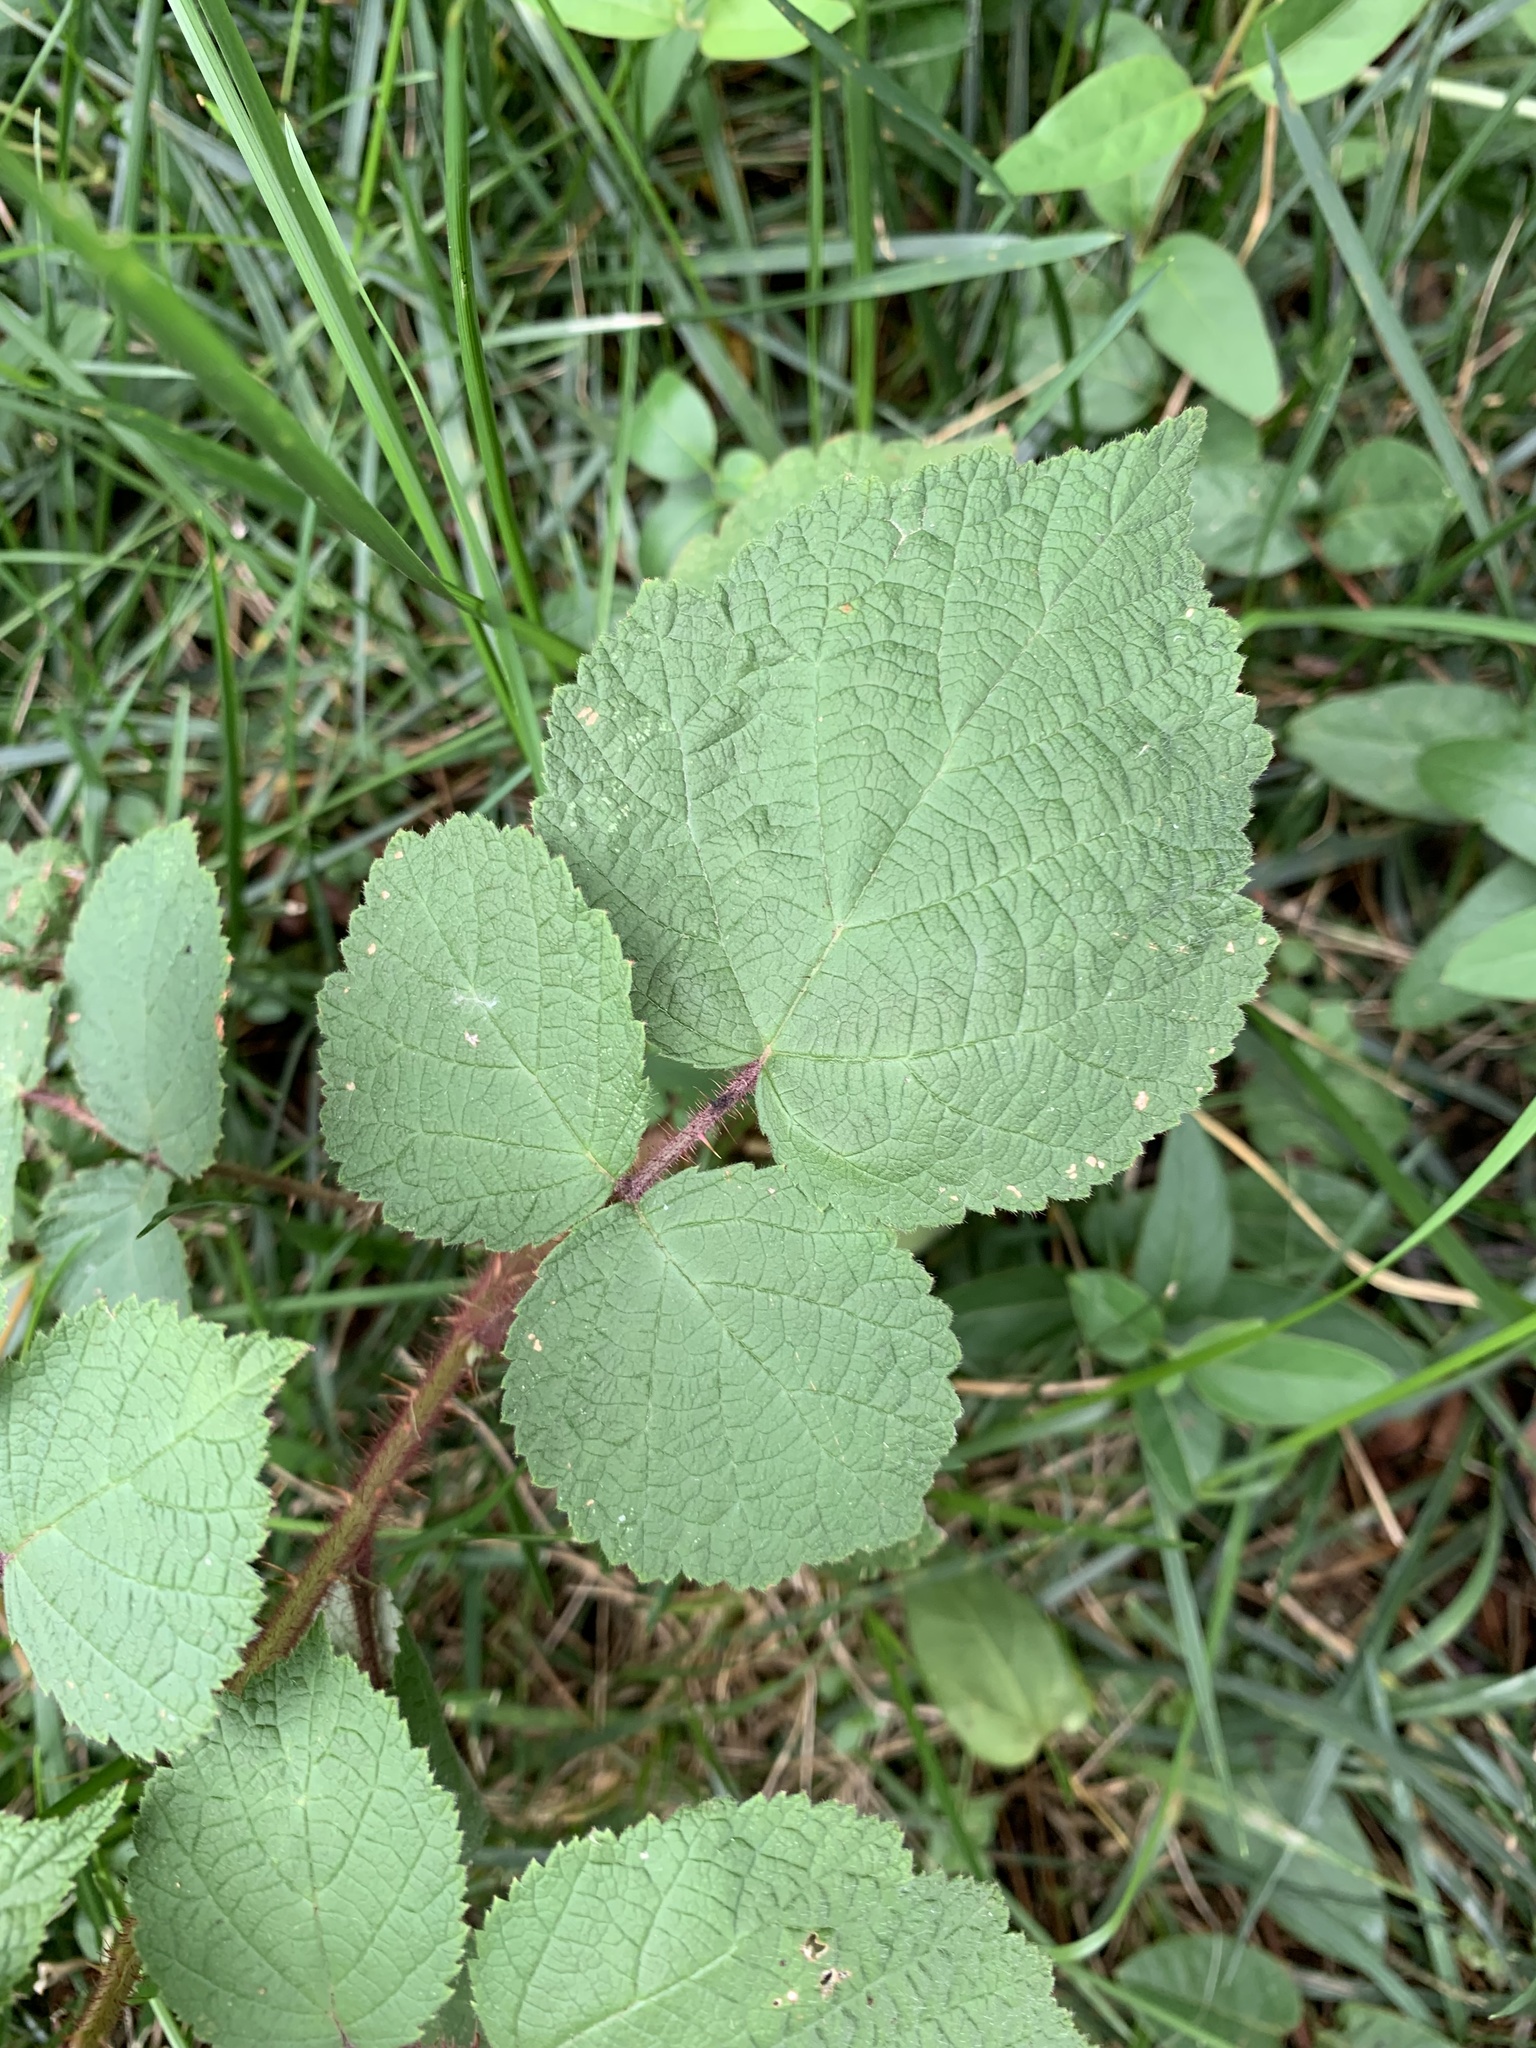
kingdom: Plantae
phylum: Tracheophyta
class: Magnoliopsida
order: Rosales
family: Rosaceae
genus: Rubus
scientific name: Rubus phoenicolasius
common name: Japanese wineberry
